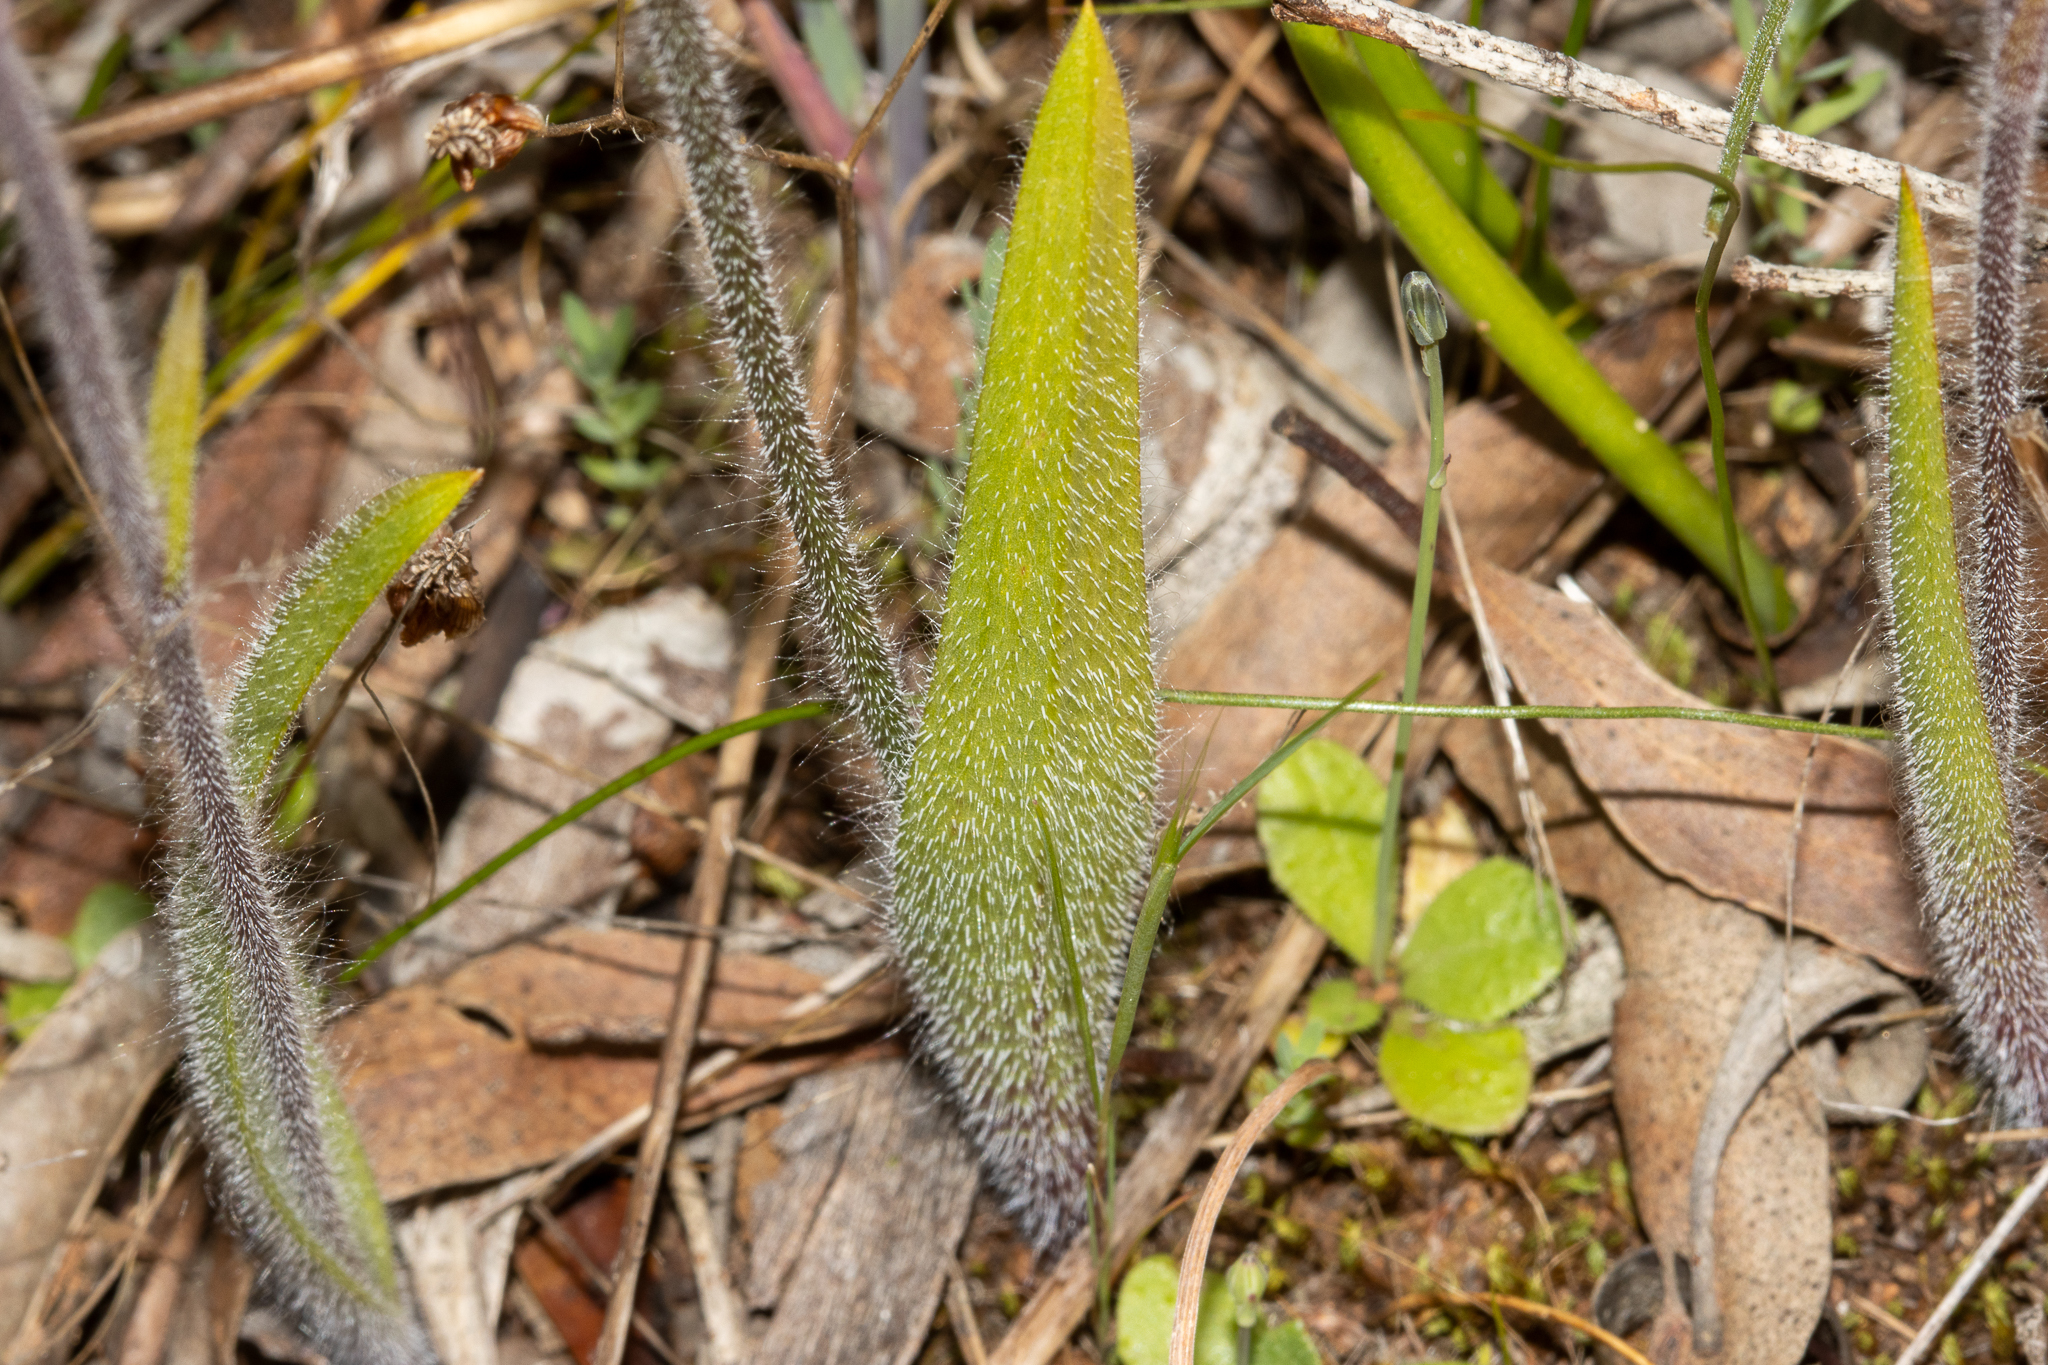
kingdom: Plantae
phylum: Tracheophyta
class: Liliopsida
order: Asparagales
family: Orchidaceae
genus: Caladenia
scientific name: Caladenia brumalis
